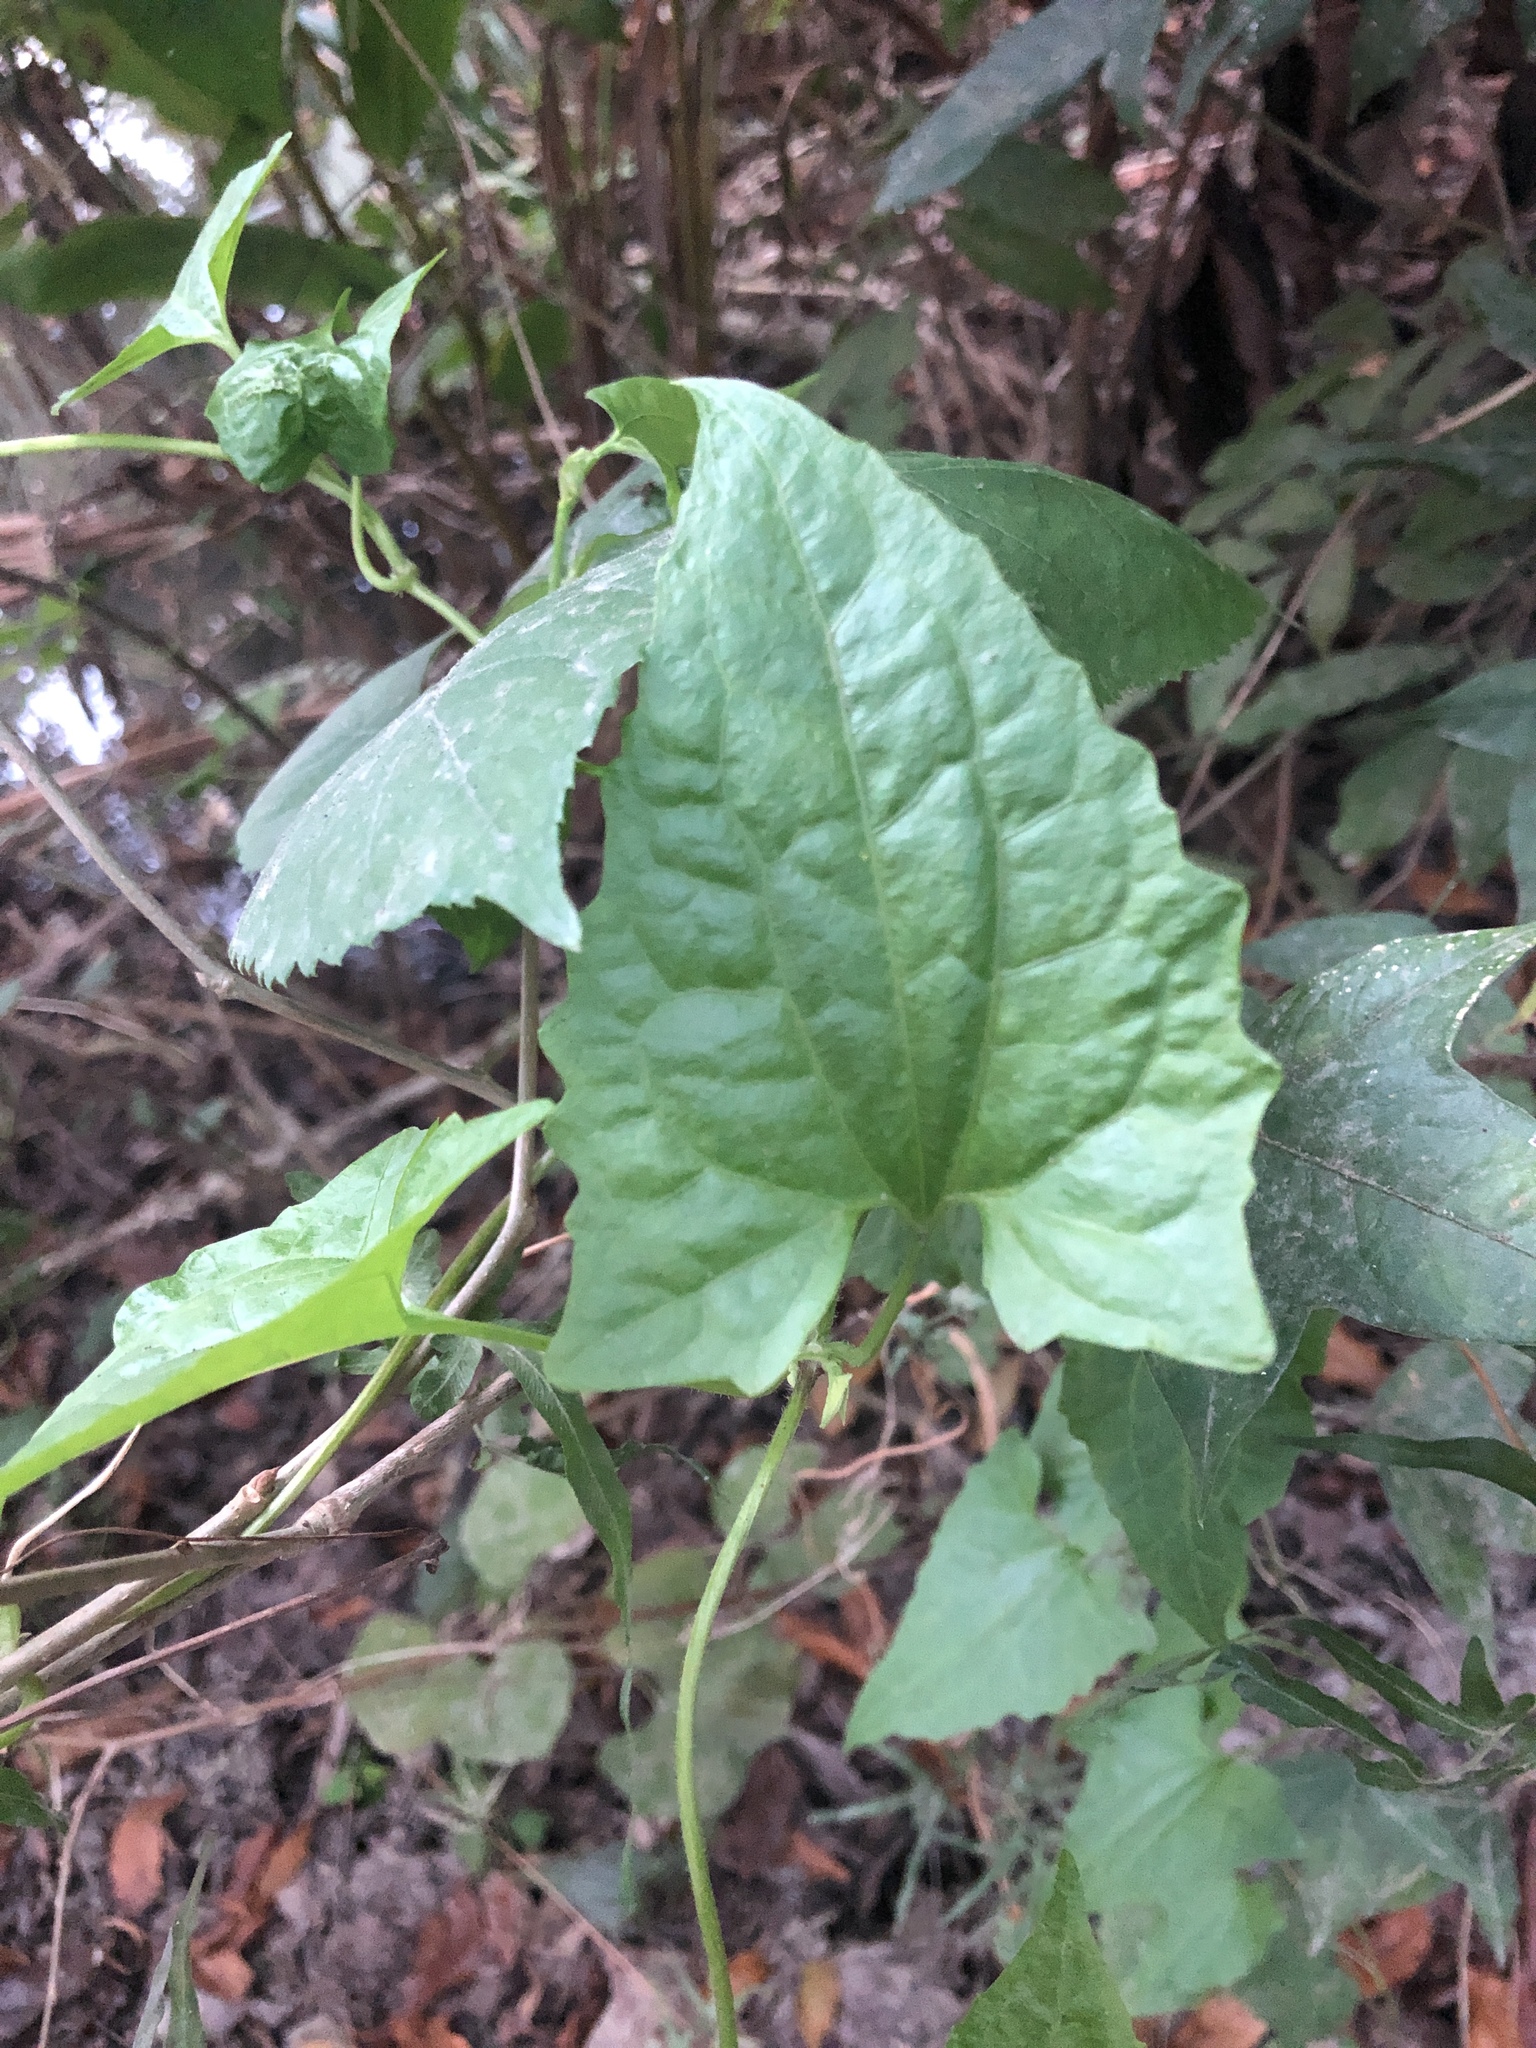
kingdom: Plantae
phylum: Tracheophyta
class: Magnoliopsida
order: Asterales
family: Asteraceae
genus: Mikania
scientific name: Mikania micrantha
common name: Mile-a-minute
